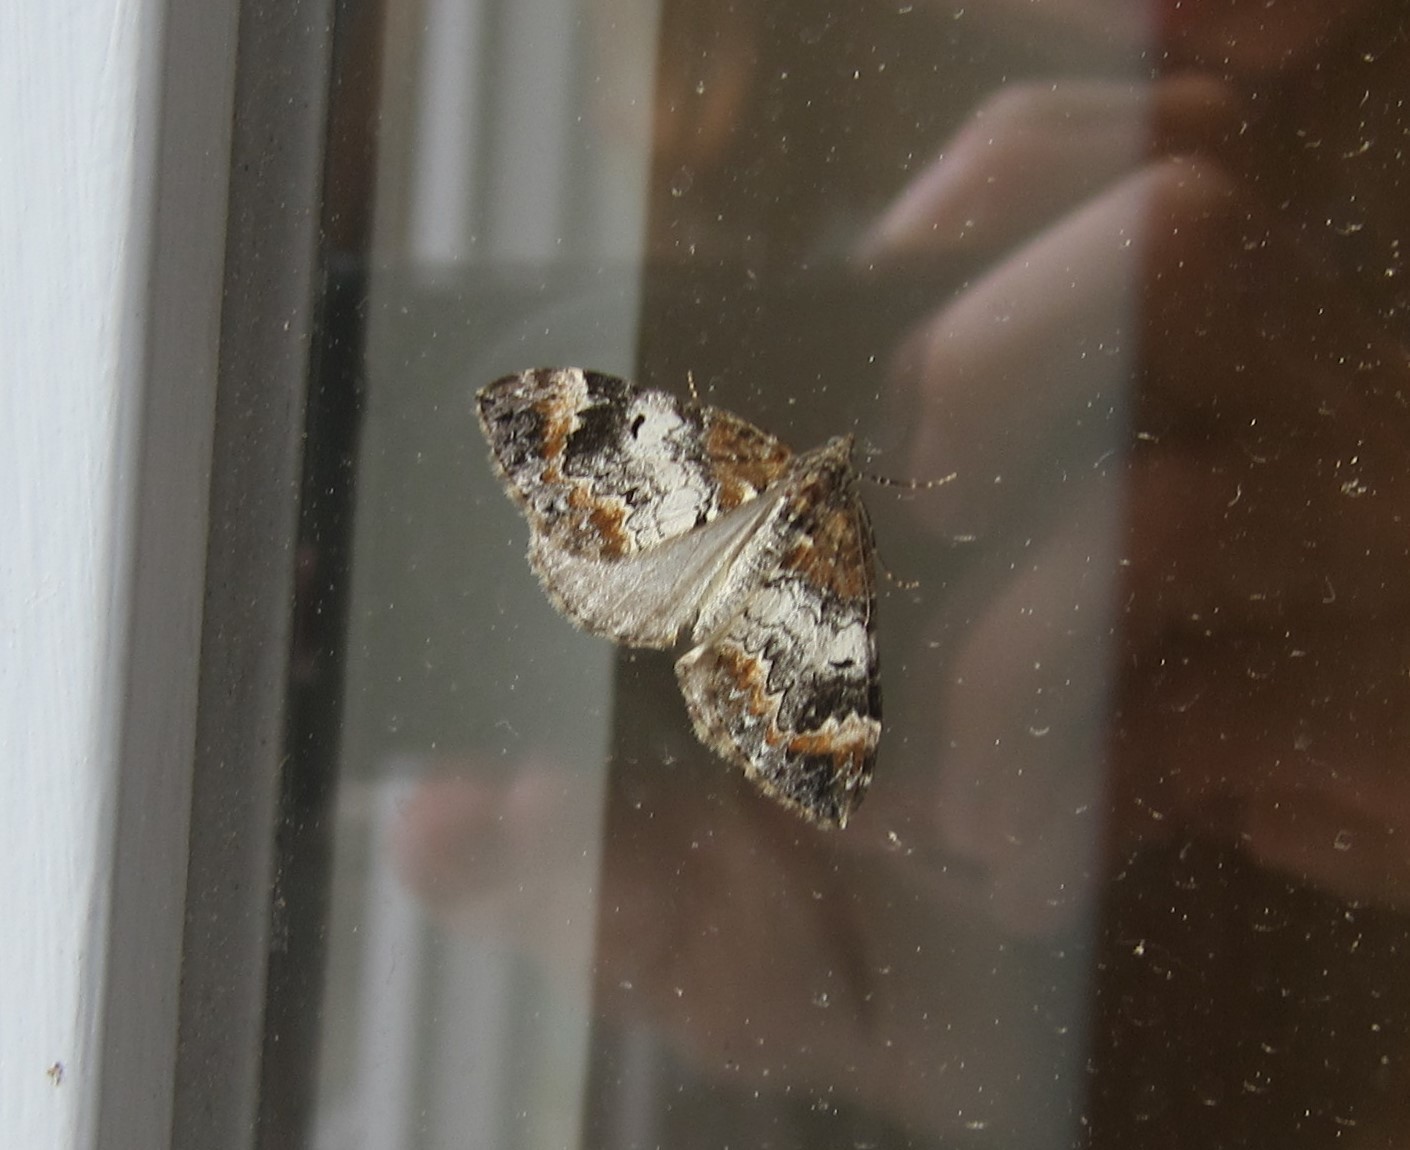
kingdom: Animalia
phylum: Arthropoda
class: Insecta
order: Lepidoptera
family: Geometridae
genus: Dysstroma
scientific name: Dysstroma truncata
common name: Common marbled carpet
